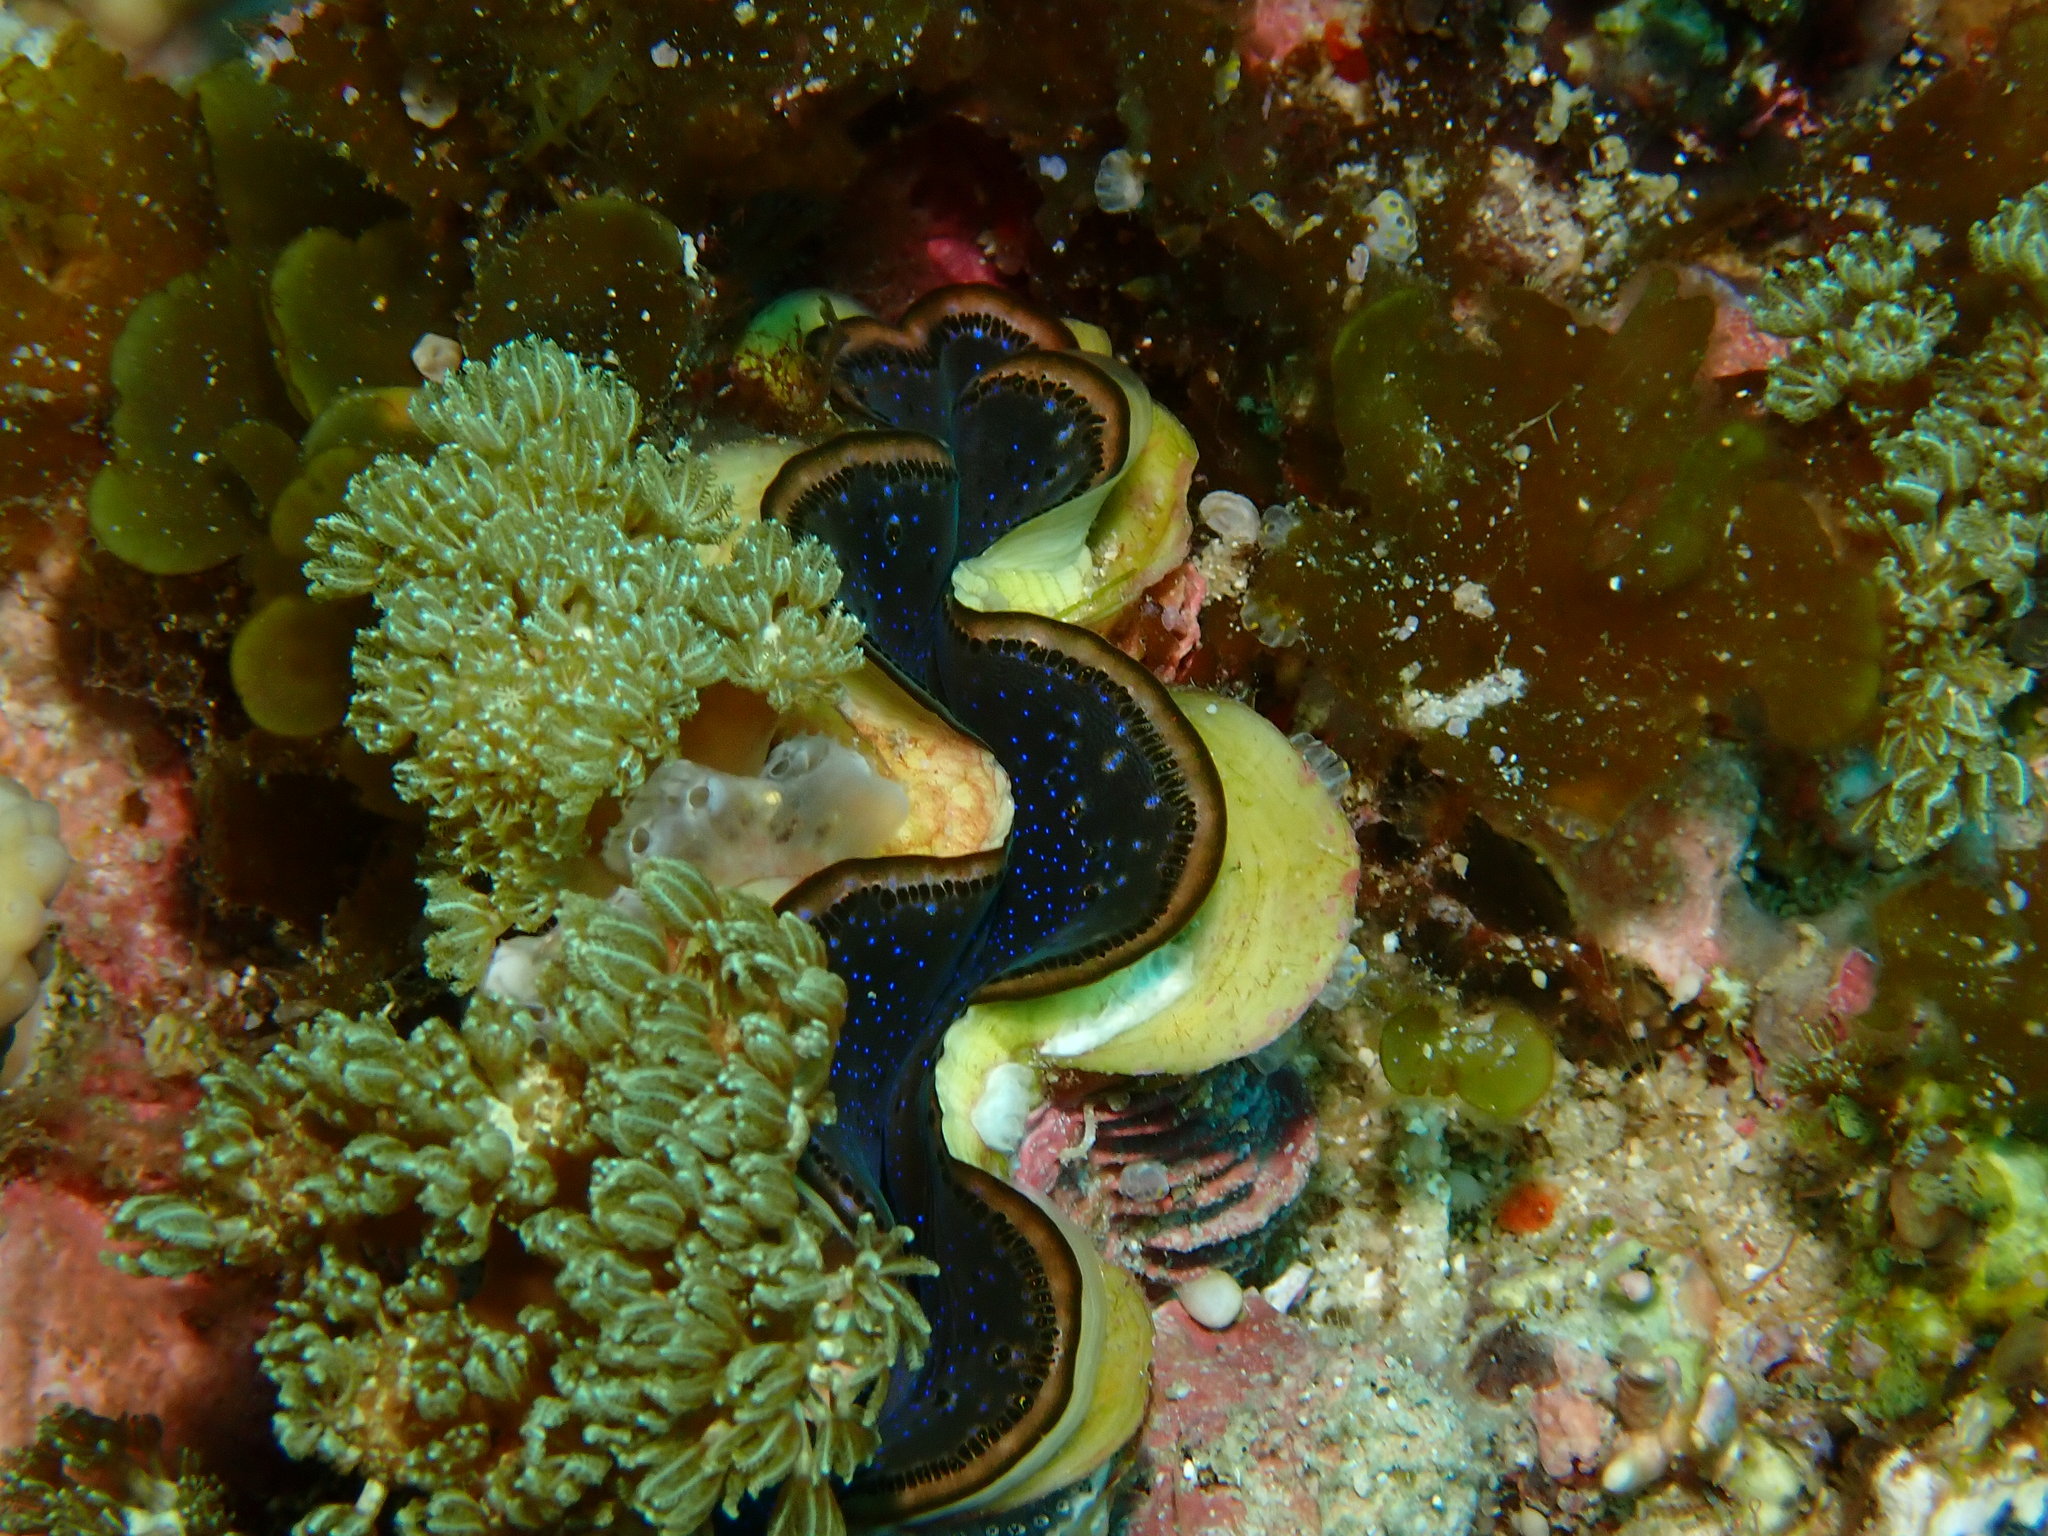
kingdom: Animalia
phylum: Mollusca
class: Bivalvia
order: Cardiida
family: Cardiidae
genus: Tridacna
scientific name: Tridacna maxima
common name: Small giant clam
